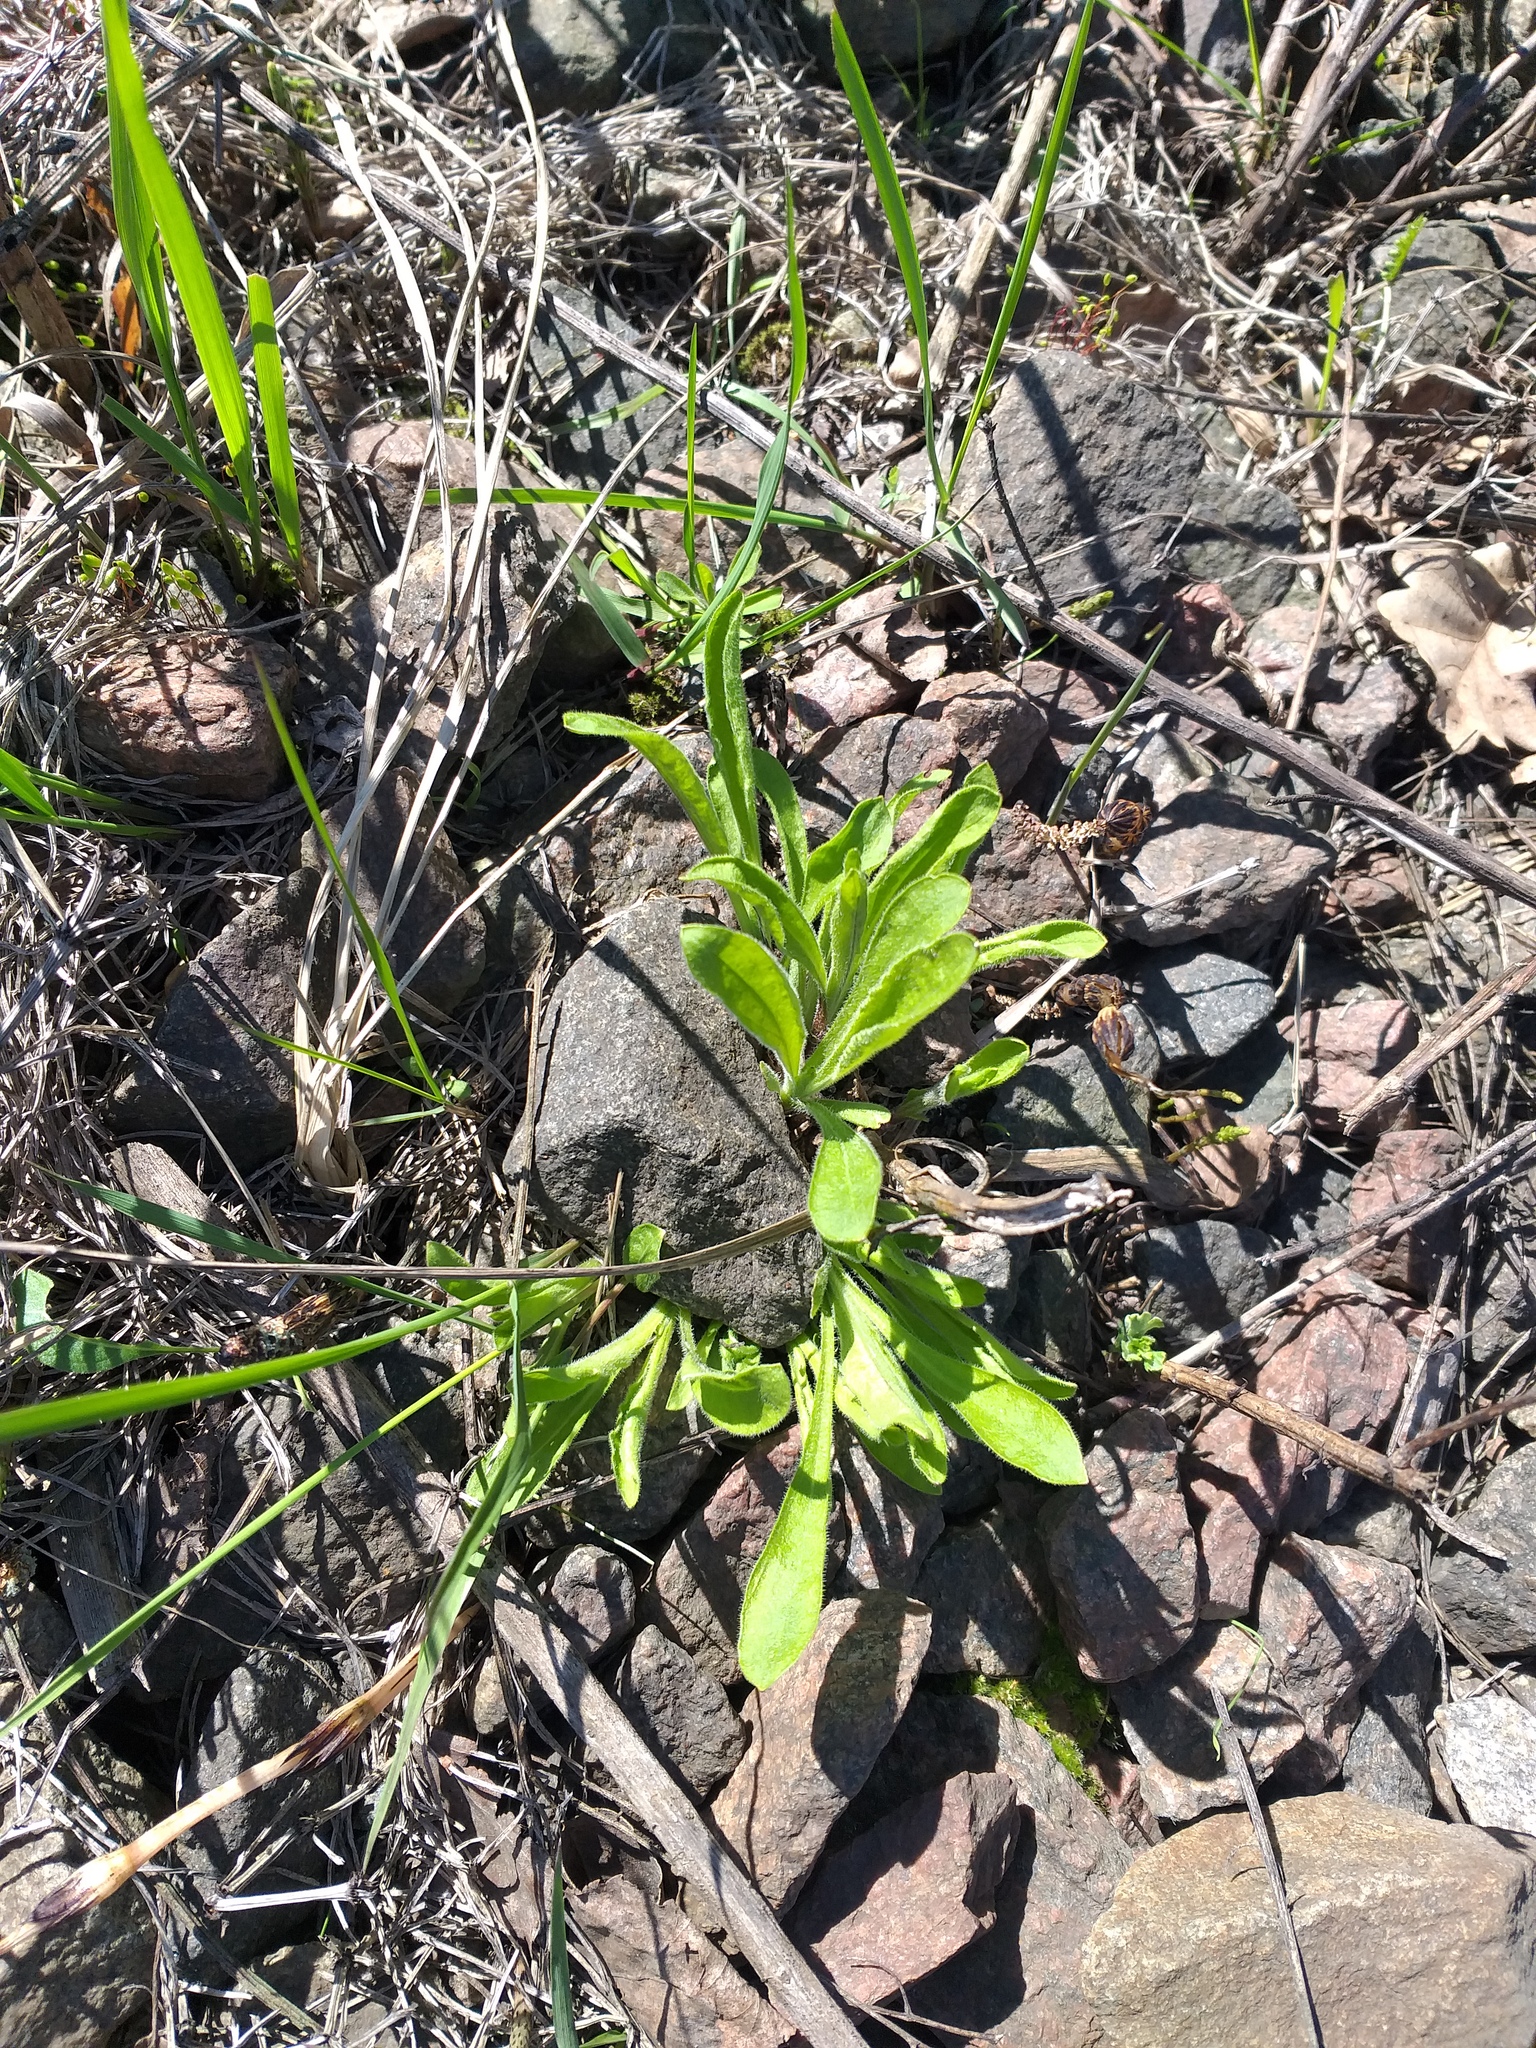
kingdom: Plantae
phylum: Tracheophyta
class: Magnoliopsida
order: Caryophyllales
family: Caryophyllaceae
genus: Silene
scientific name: Silene nutans
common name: Nottingham catchfly
